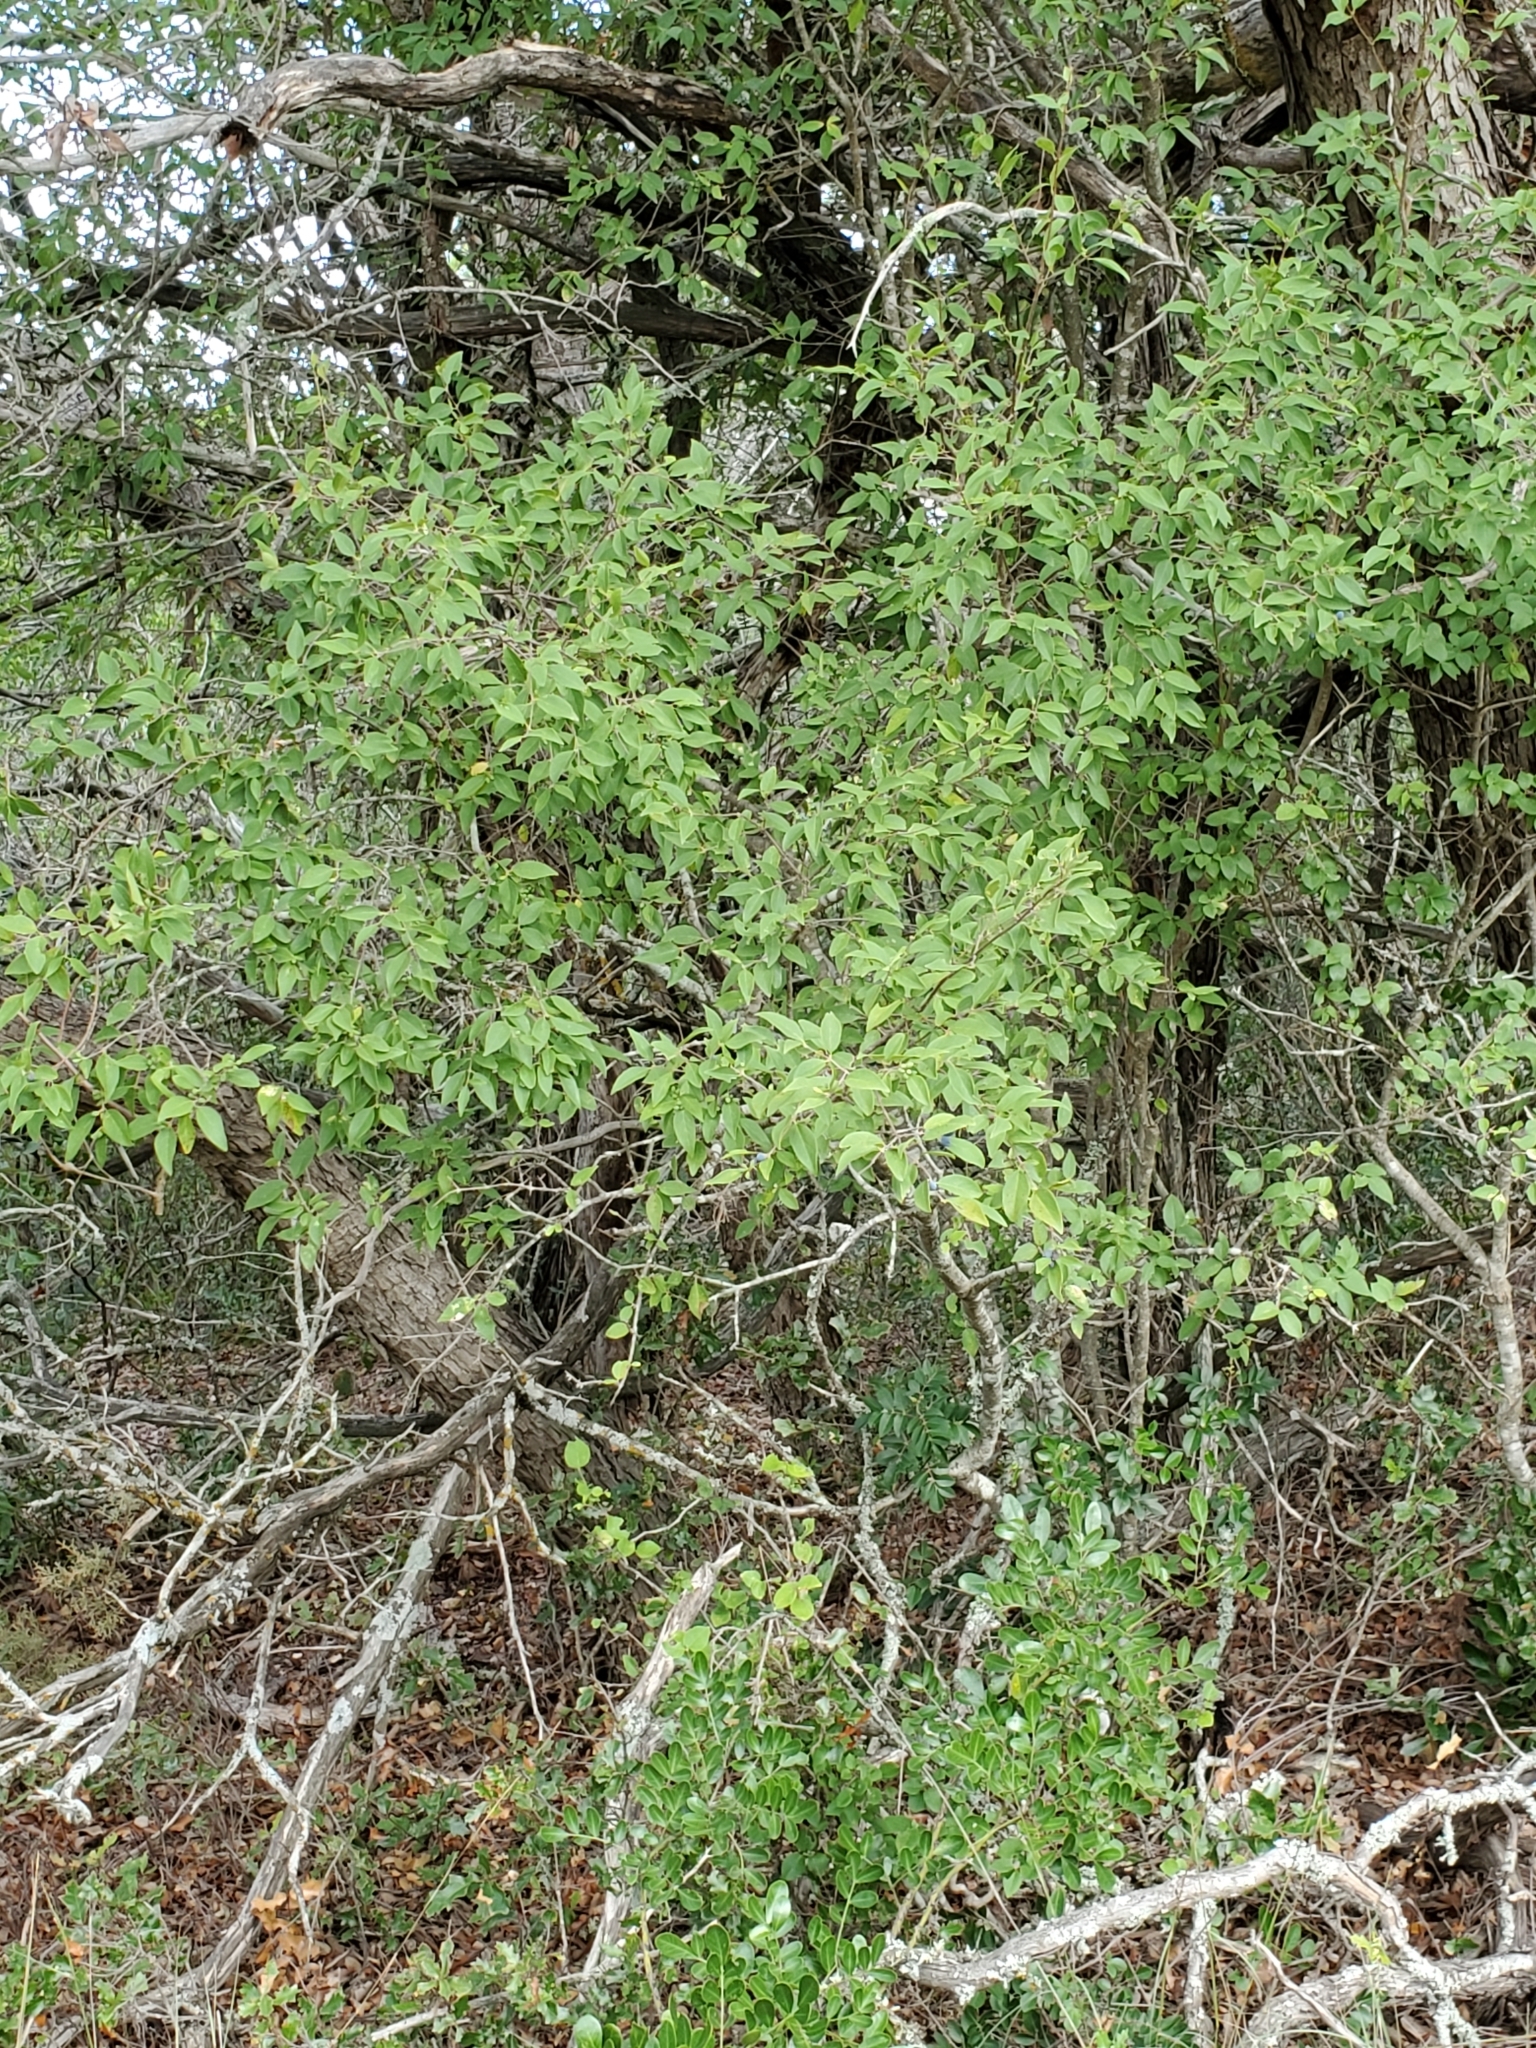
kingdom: Plantae
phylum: Tracheophyta
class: Magnoliopsida
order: Lamiales
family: Oleaceae
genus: Forestiera
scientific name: Forestiera reticulata
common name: Netleaf swamp-privet
